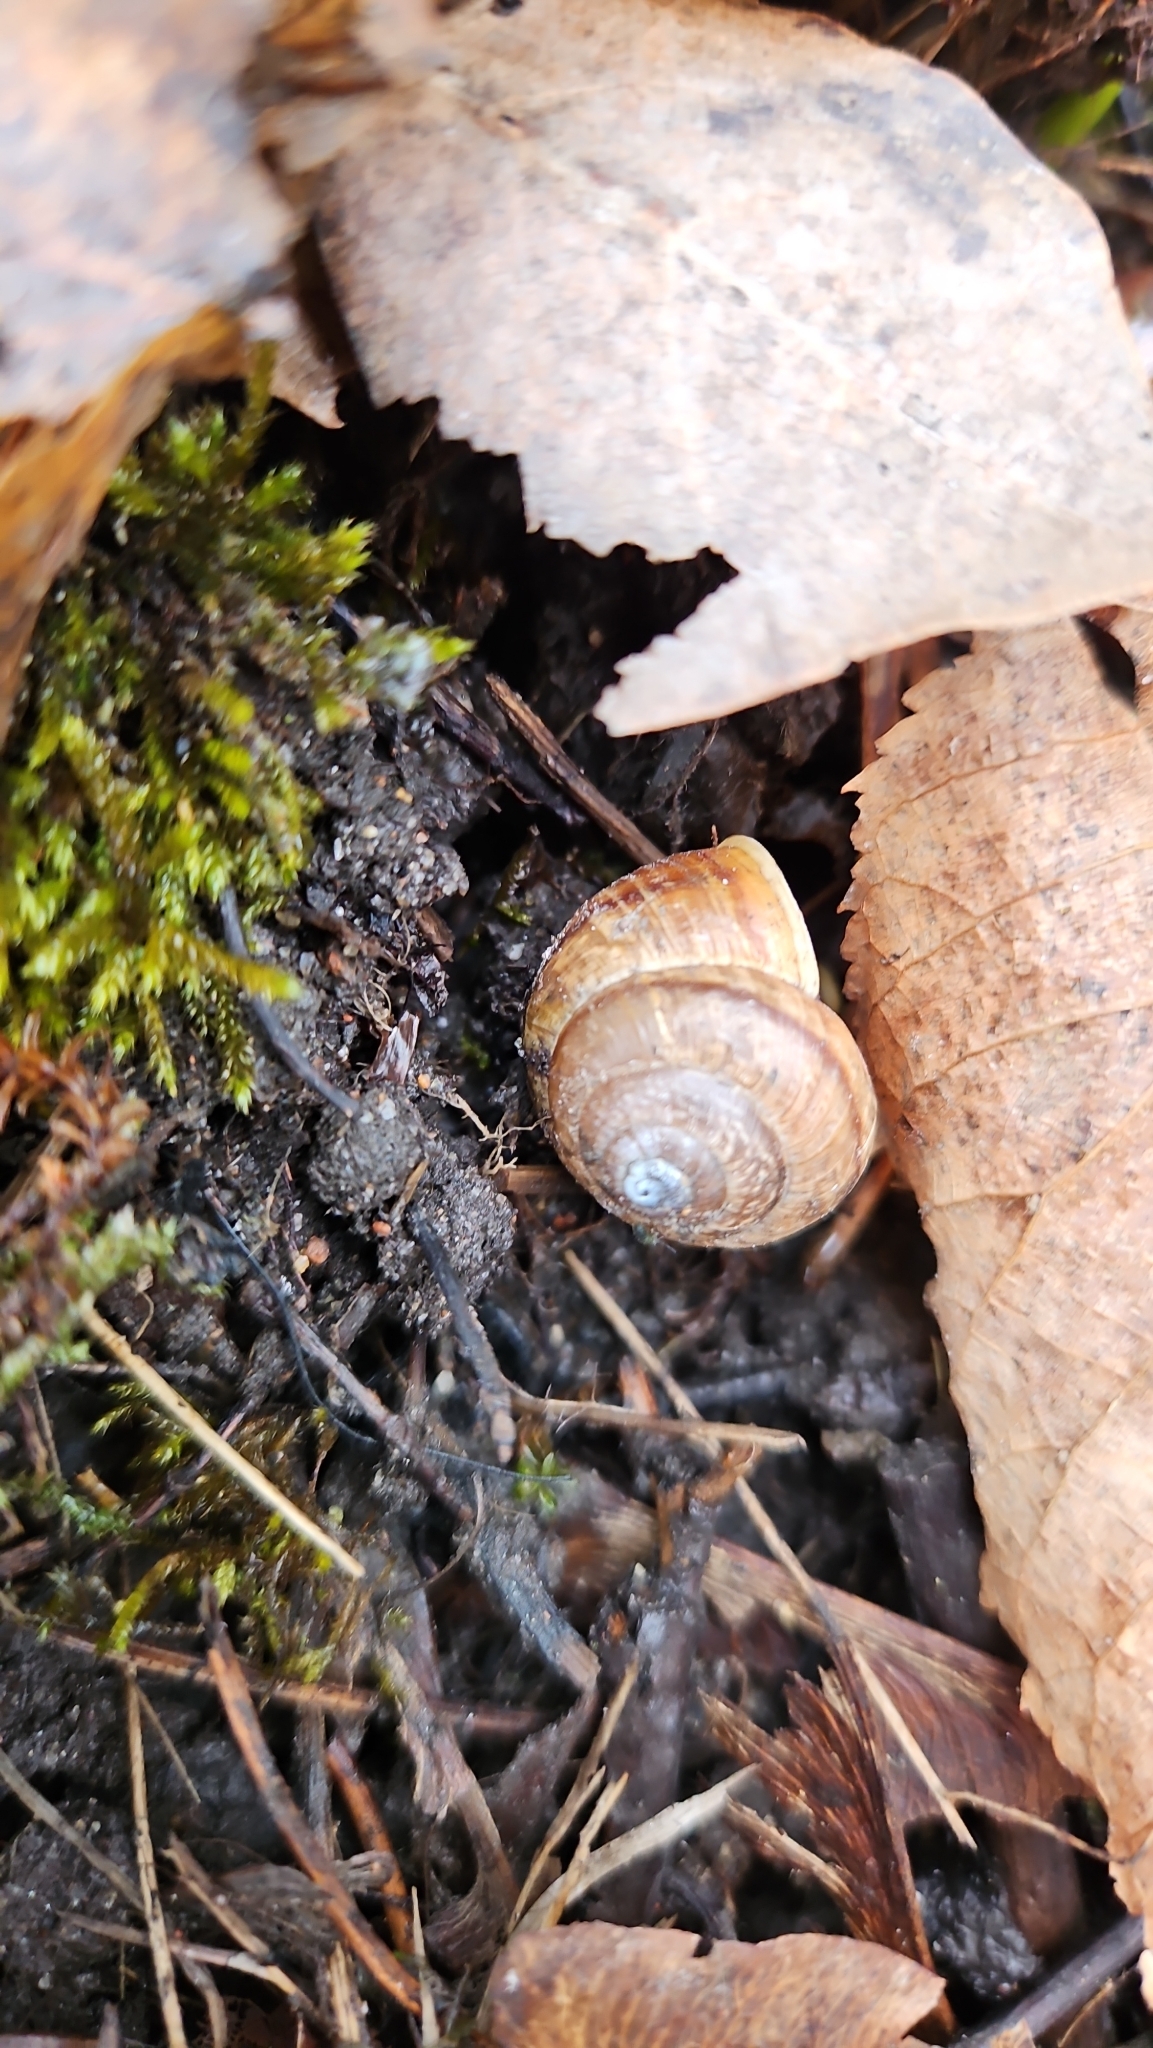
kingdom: Animalia
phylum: Mollusca
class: Gastropoda
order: Stylommatophora
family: Helicidae
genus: Arianta
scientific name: Arianta arbustorum
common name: Copse snail
